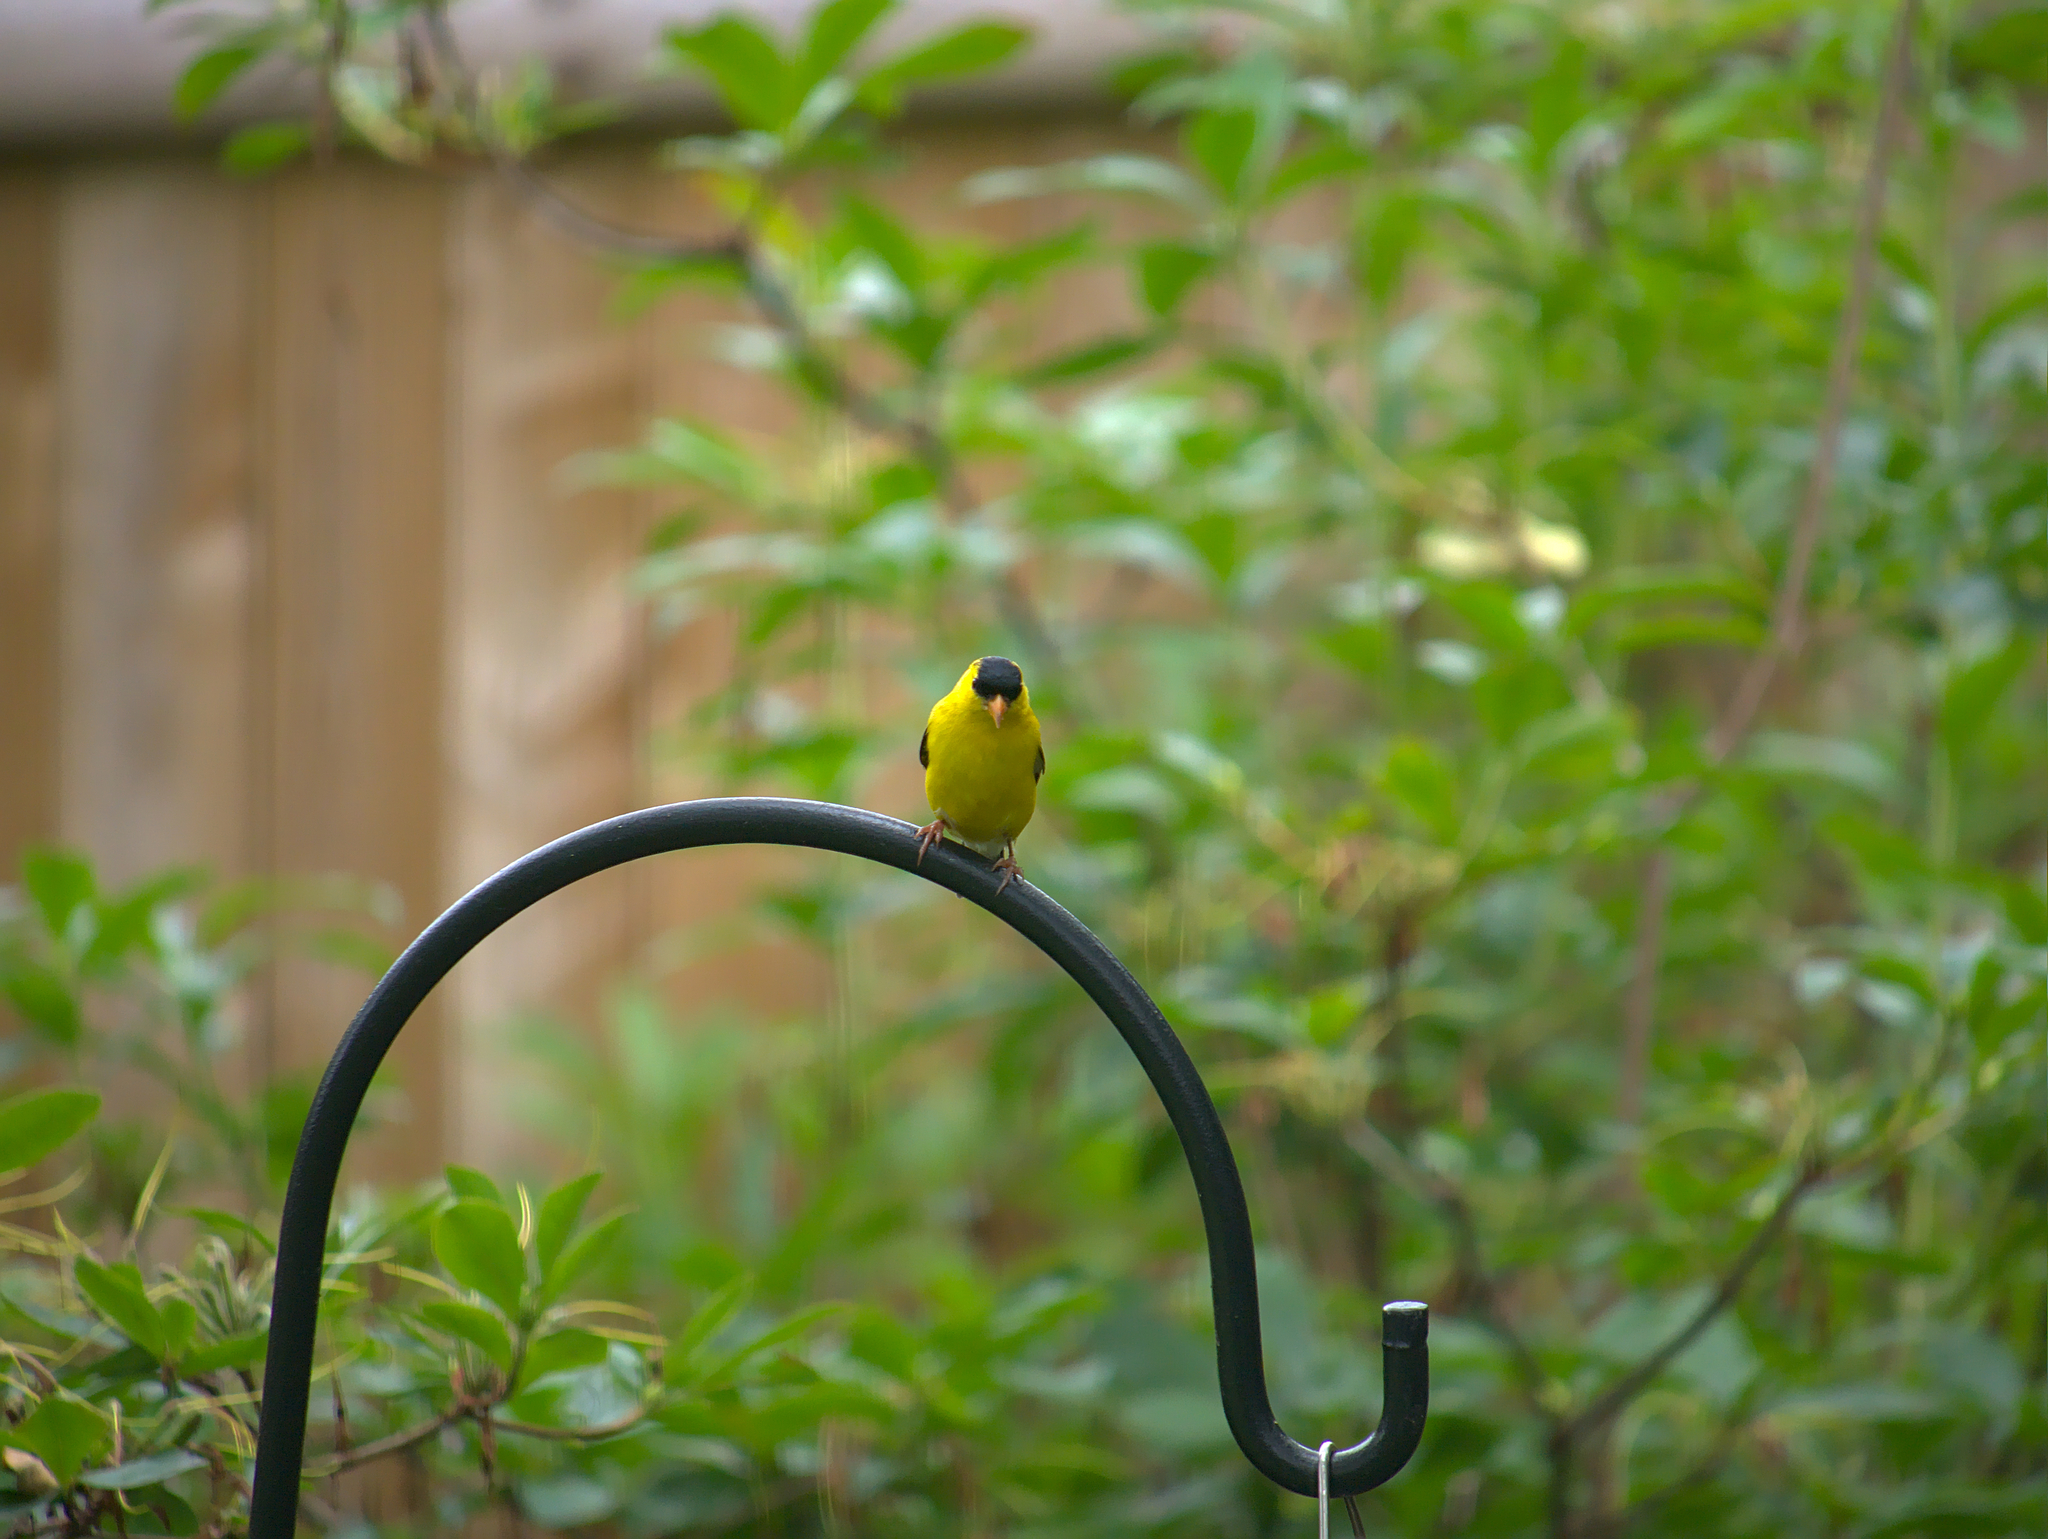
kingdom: Animalia
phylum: Chordata
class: Aves
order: Passeriformes
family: Fringillidae
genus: Spinus
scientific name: Spinus tristis
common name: American goldfinch
